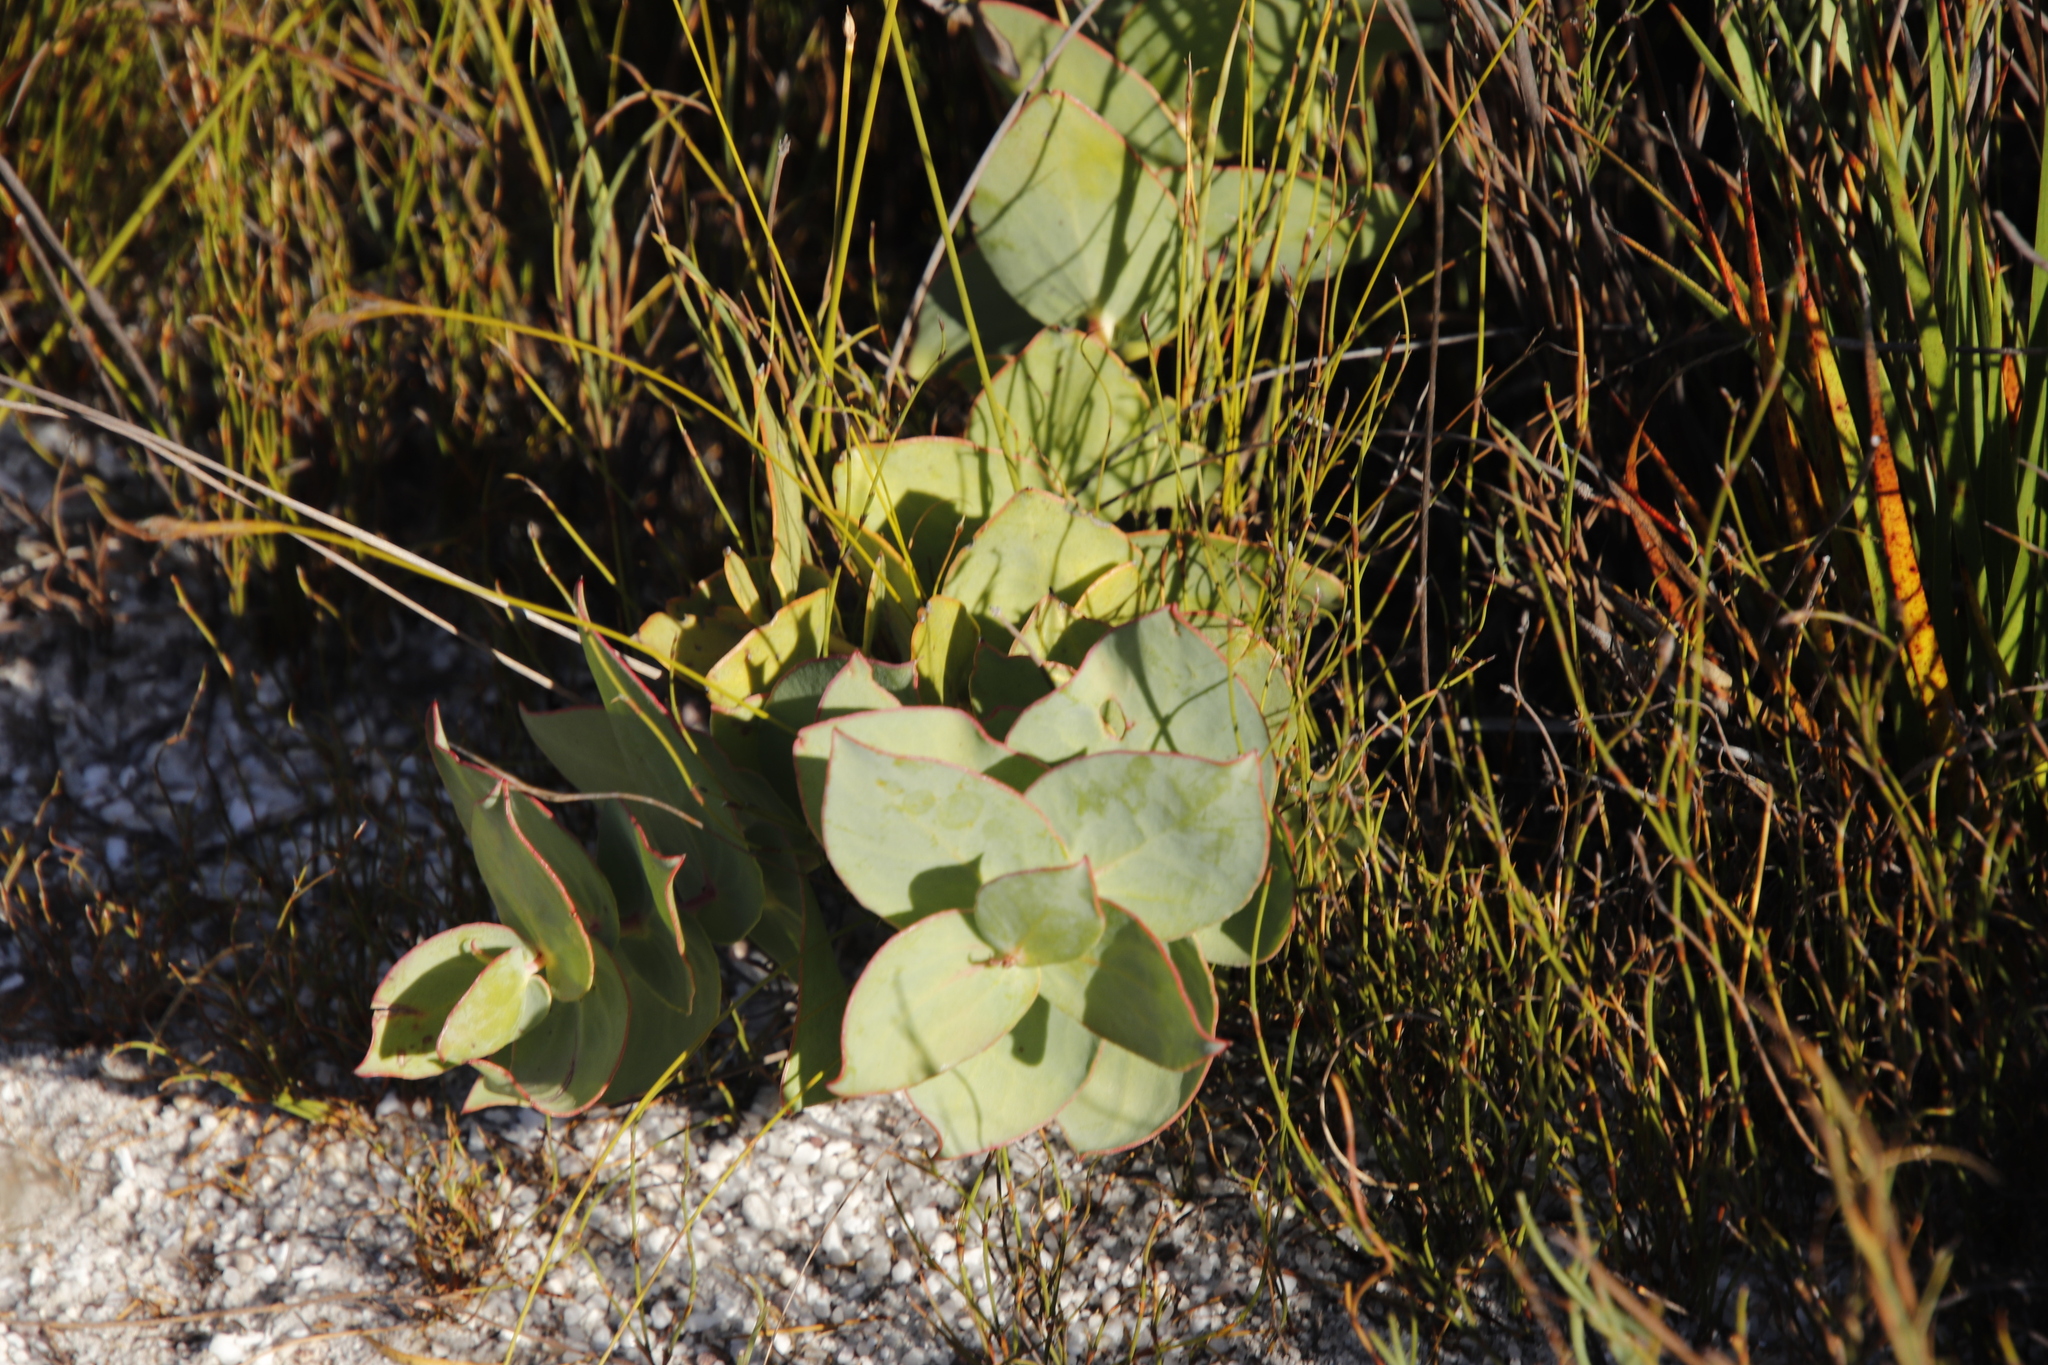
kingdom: Plantae
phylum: Tracheophyta
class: Magnoliopsida
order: Proteales
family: Proteaceae
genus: Protea
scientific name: Protea amplexicaulis
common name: Clasping-leaf sugarbush
